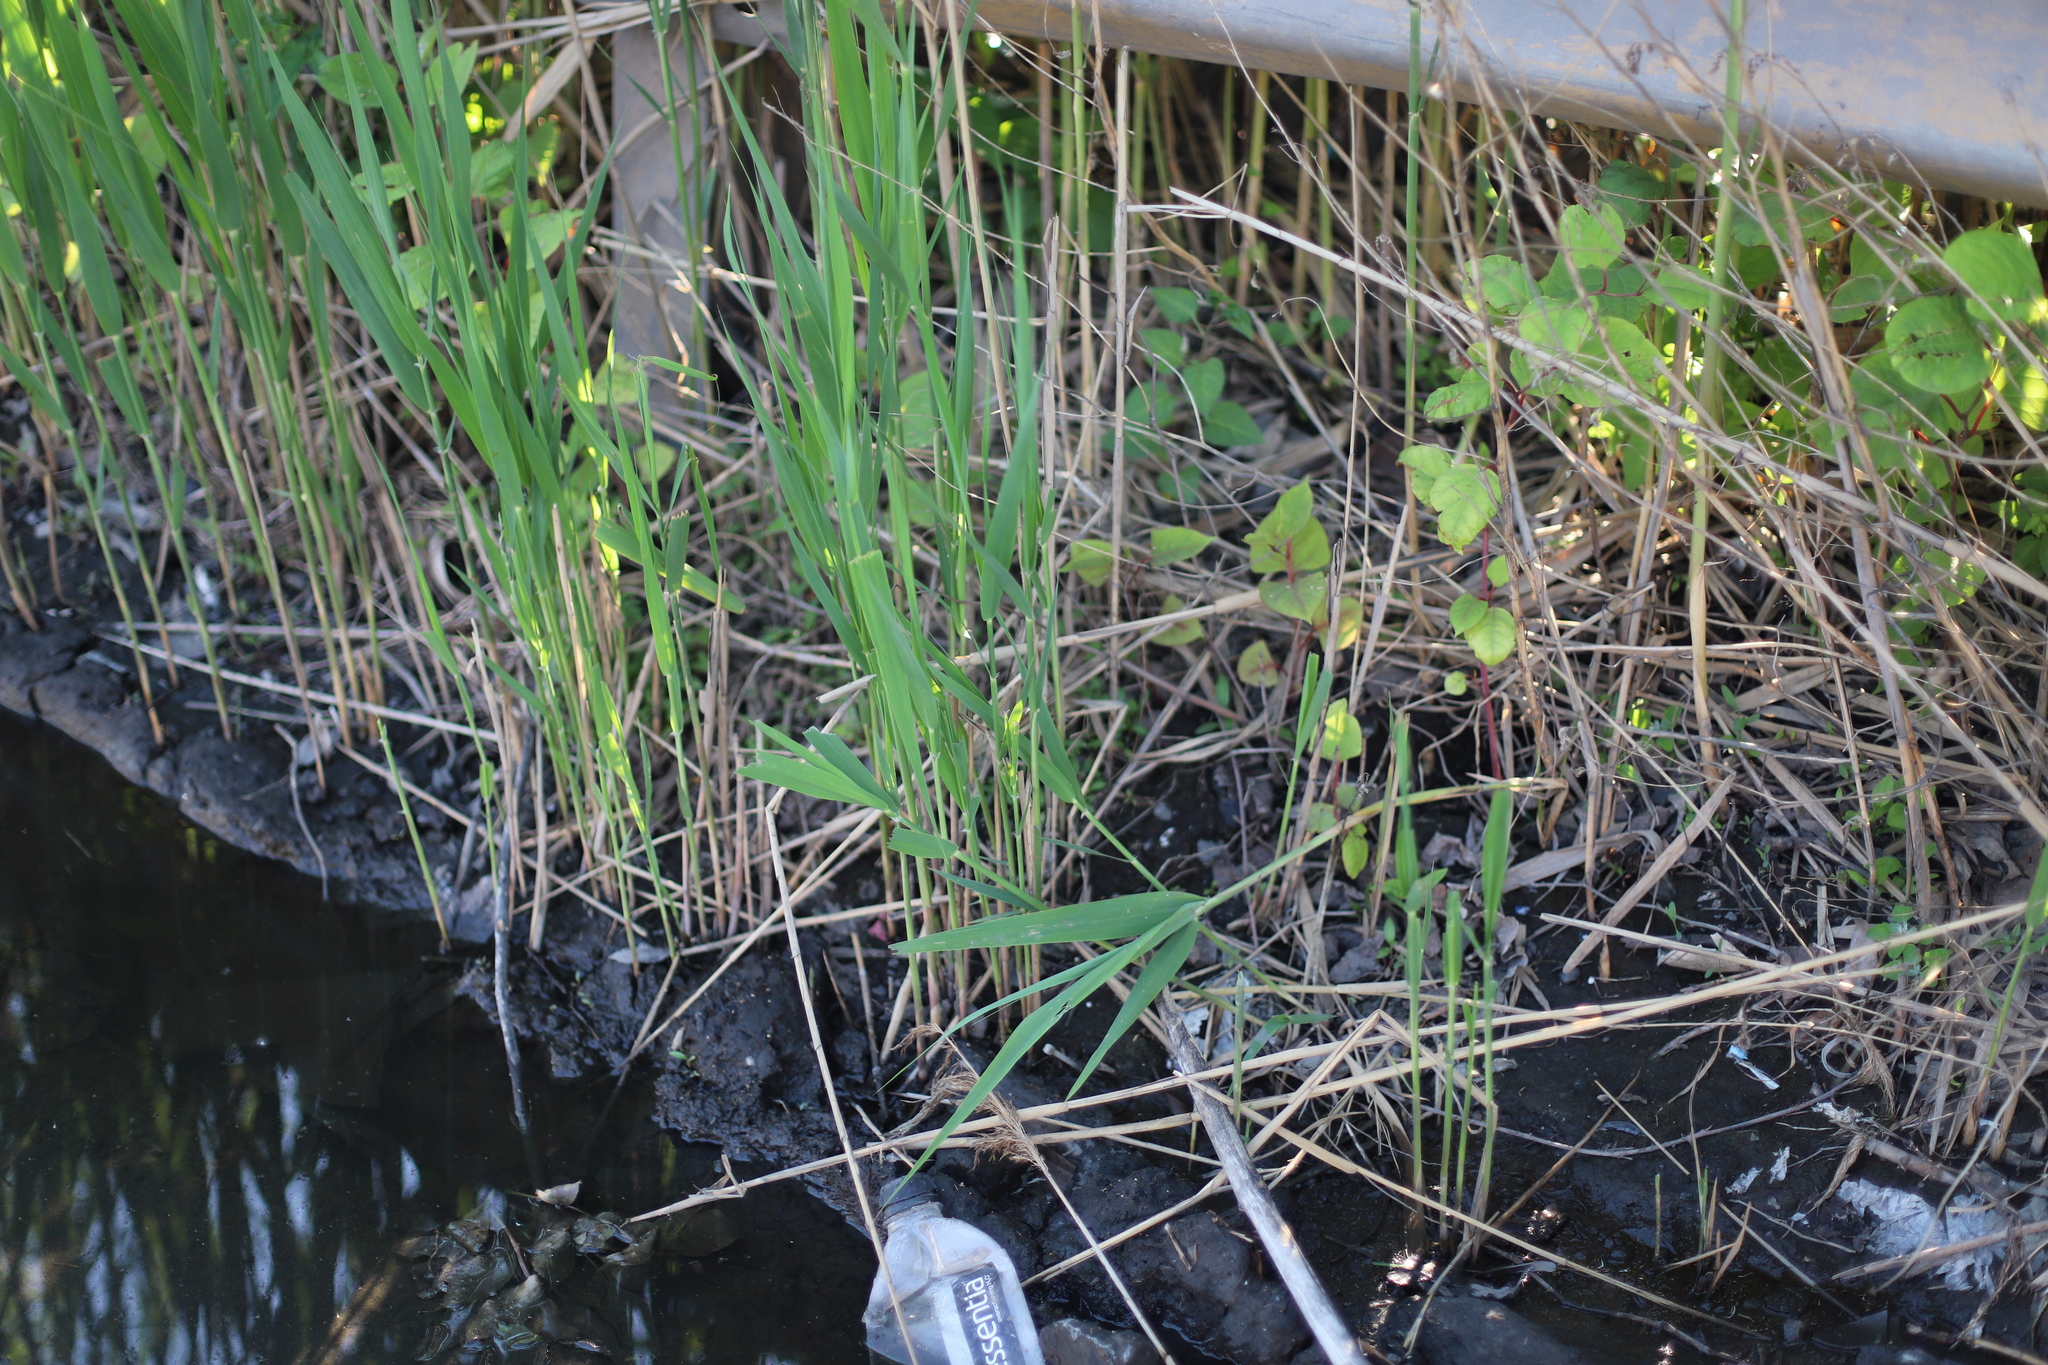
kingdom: Plantae
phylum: Tracheophyta
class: Liliopsida
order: Poales
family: Poaceae
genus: Phragmites
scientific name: Phragmites australis
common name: Common reed
